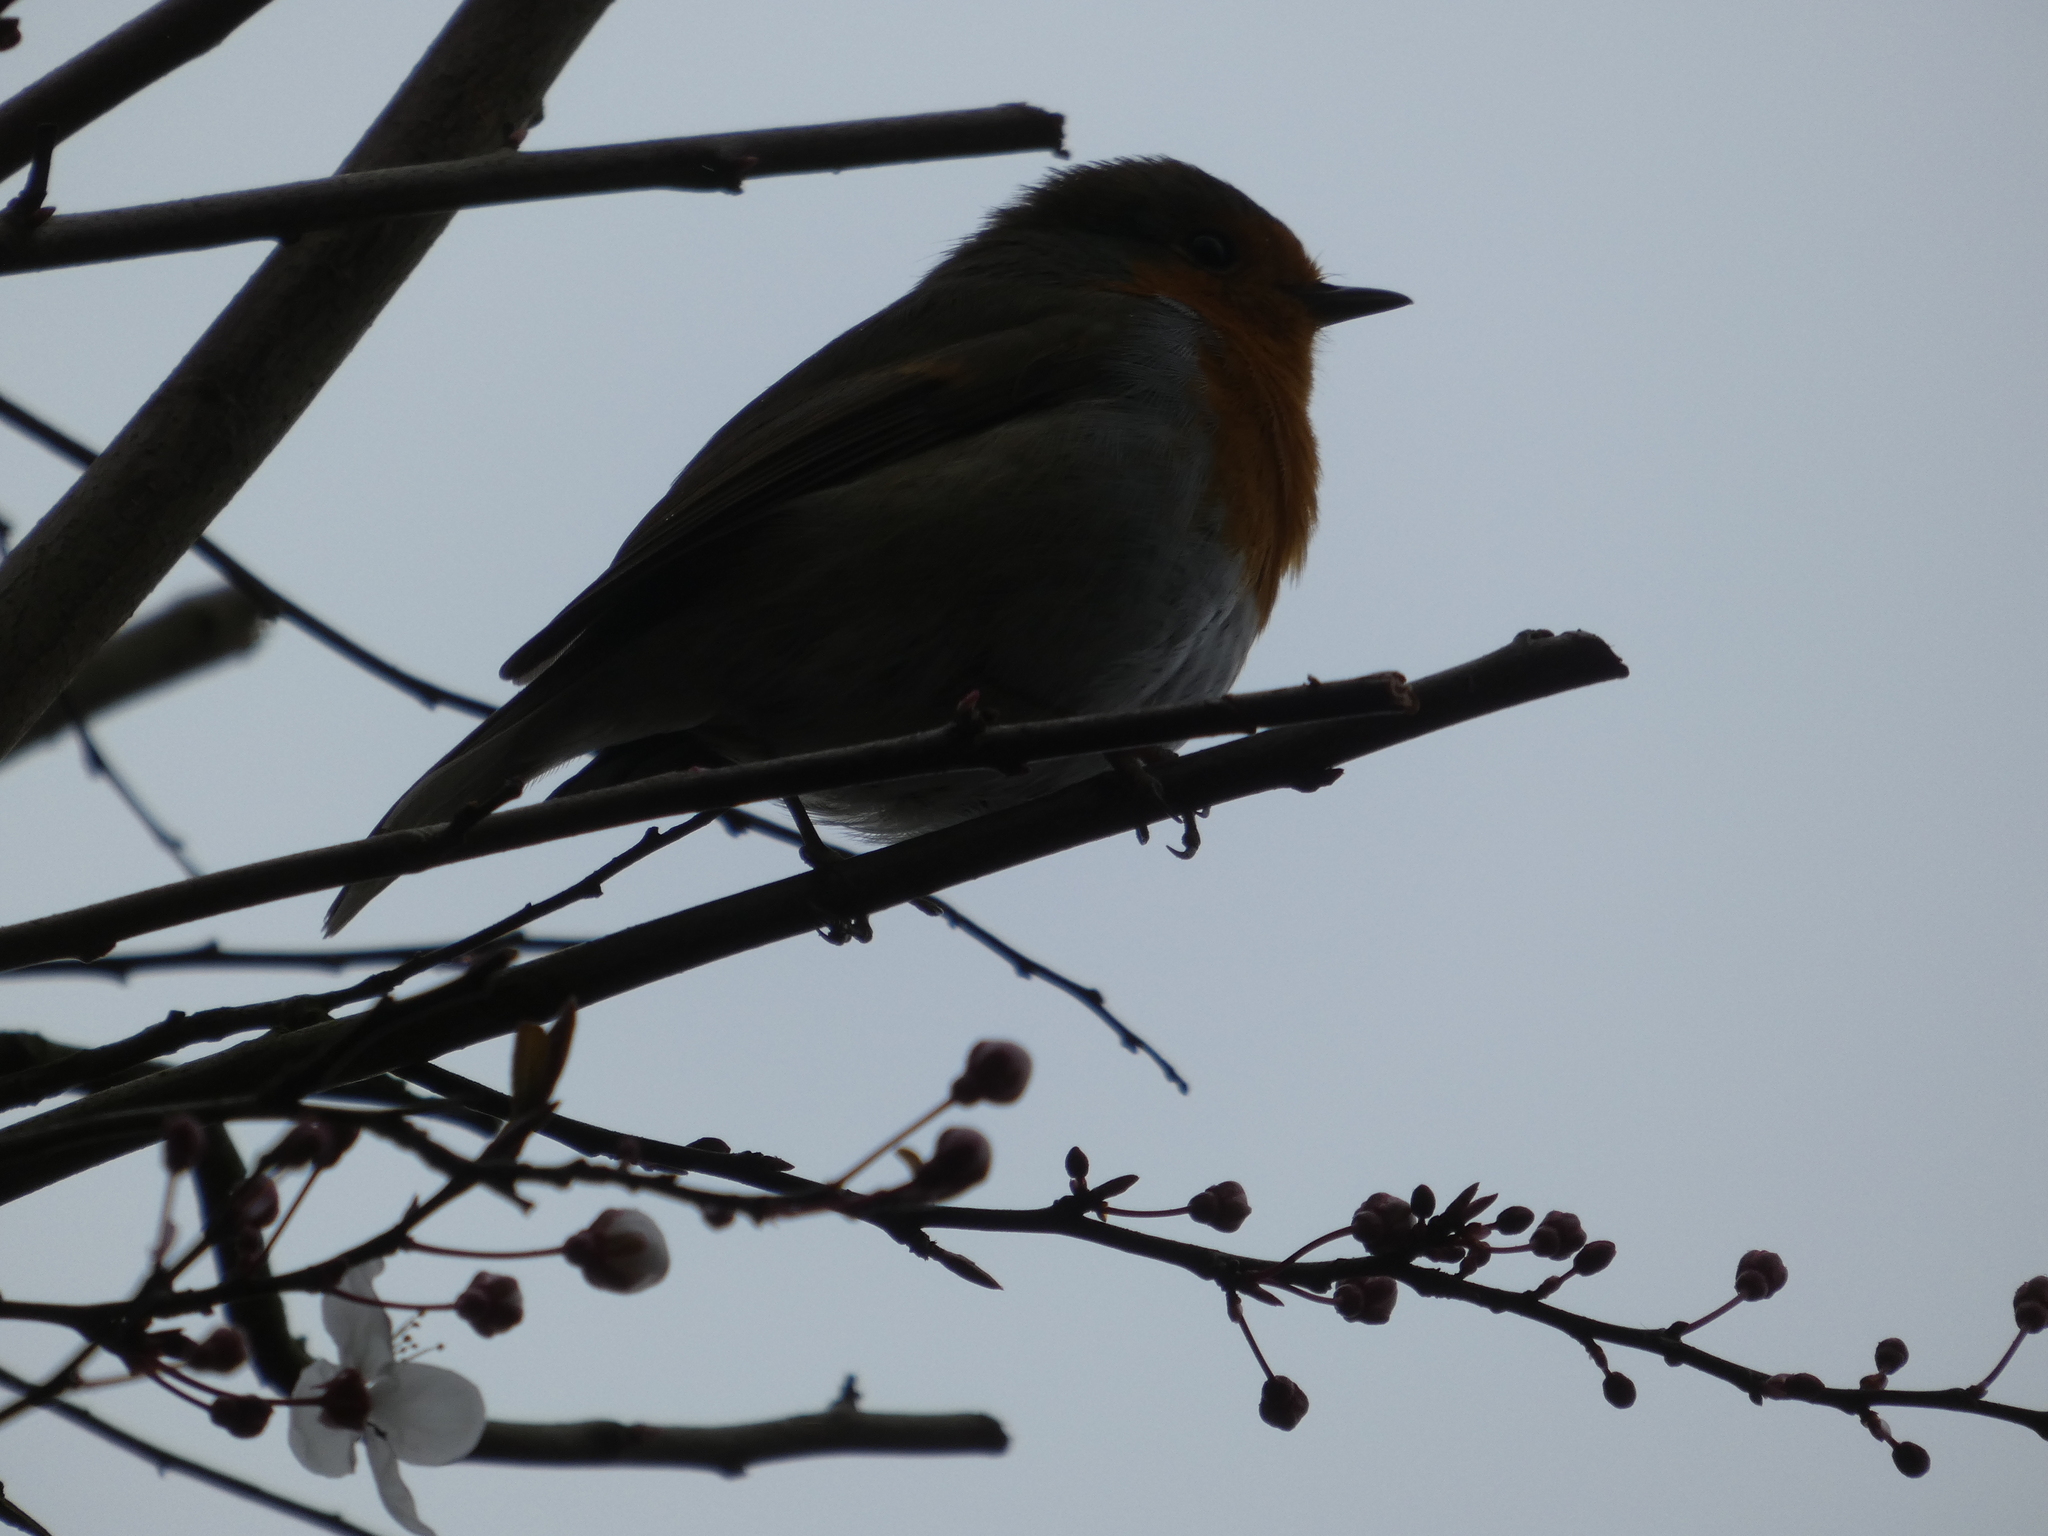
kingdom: Animalia
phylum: Chordata
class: Aves
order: Passeriformes
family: Muscicapidae
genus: Erithacus
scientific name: Erithacus rubecula
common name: European robin
